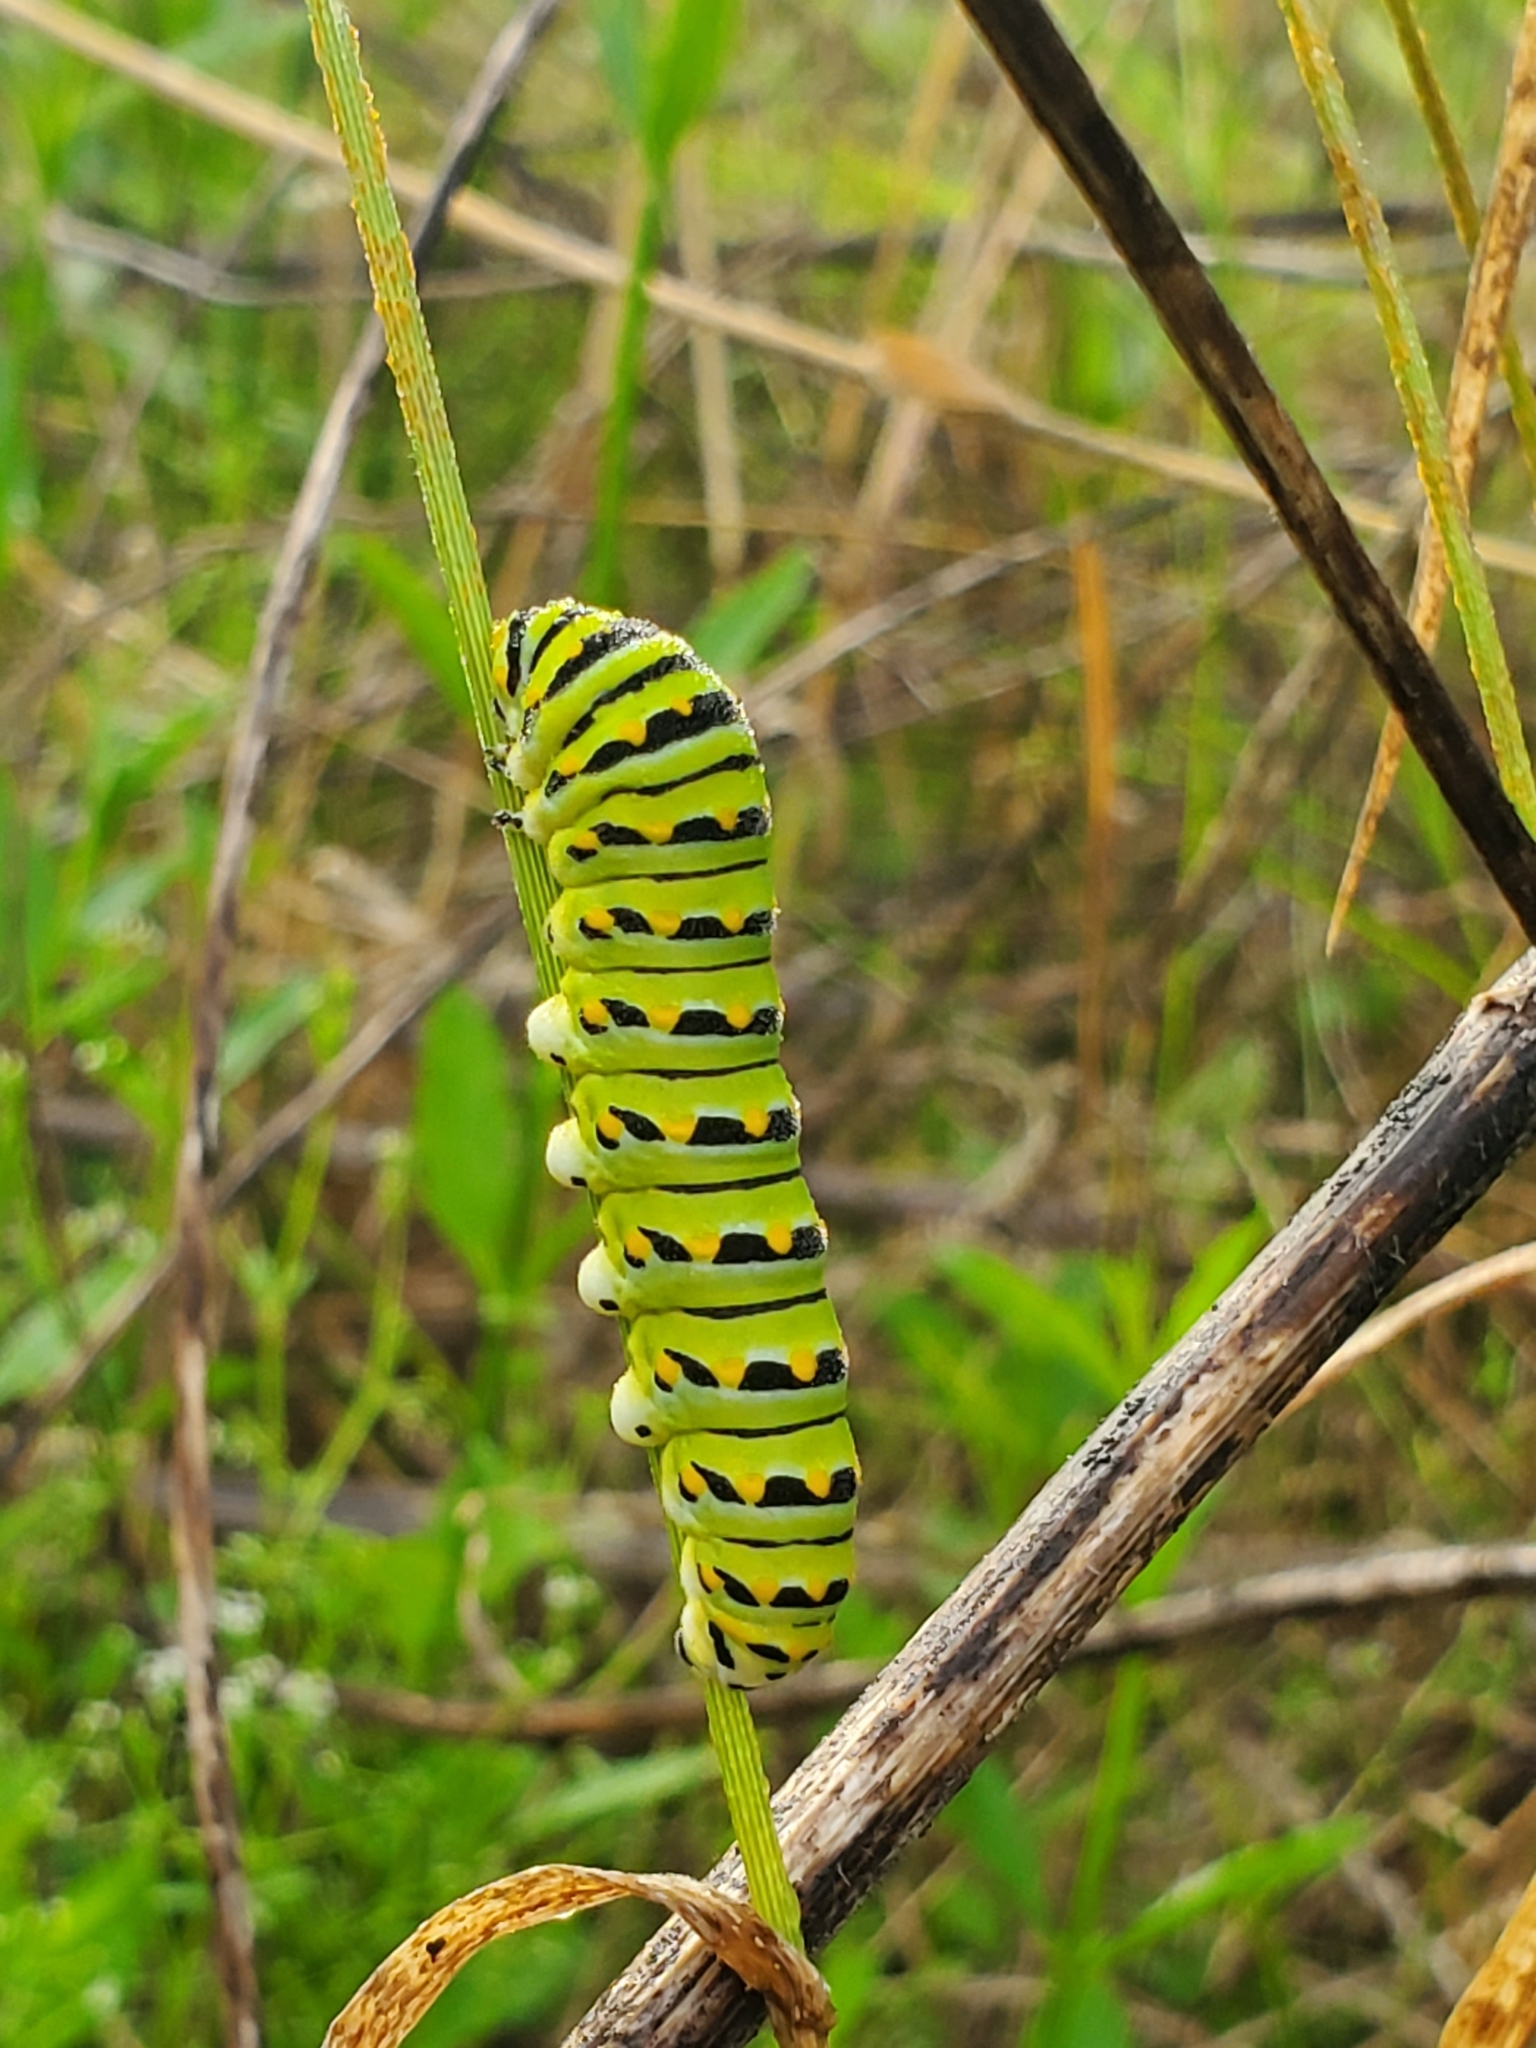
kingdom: Animalia
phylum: Arthropoda
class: Insecta
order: Lepidoptera
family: Papilionidae
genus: Papilio
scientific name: Papilio polyxenes
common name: Black swallowtail
